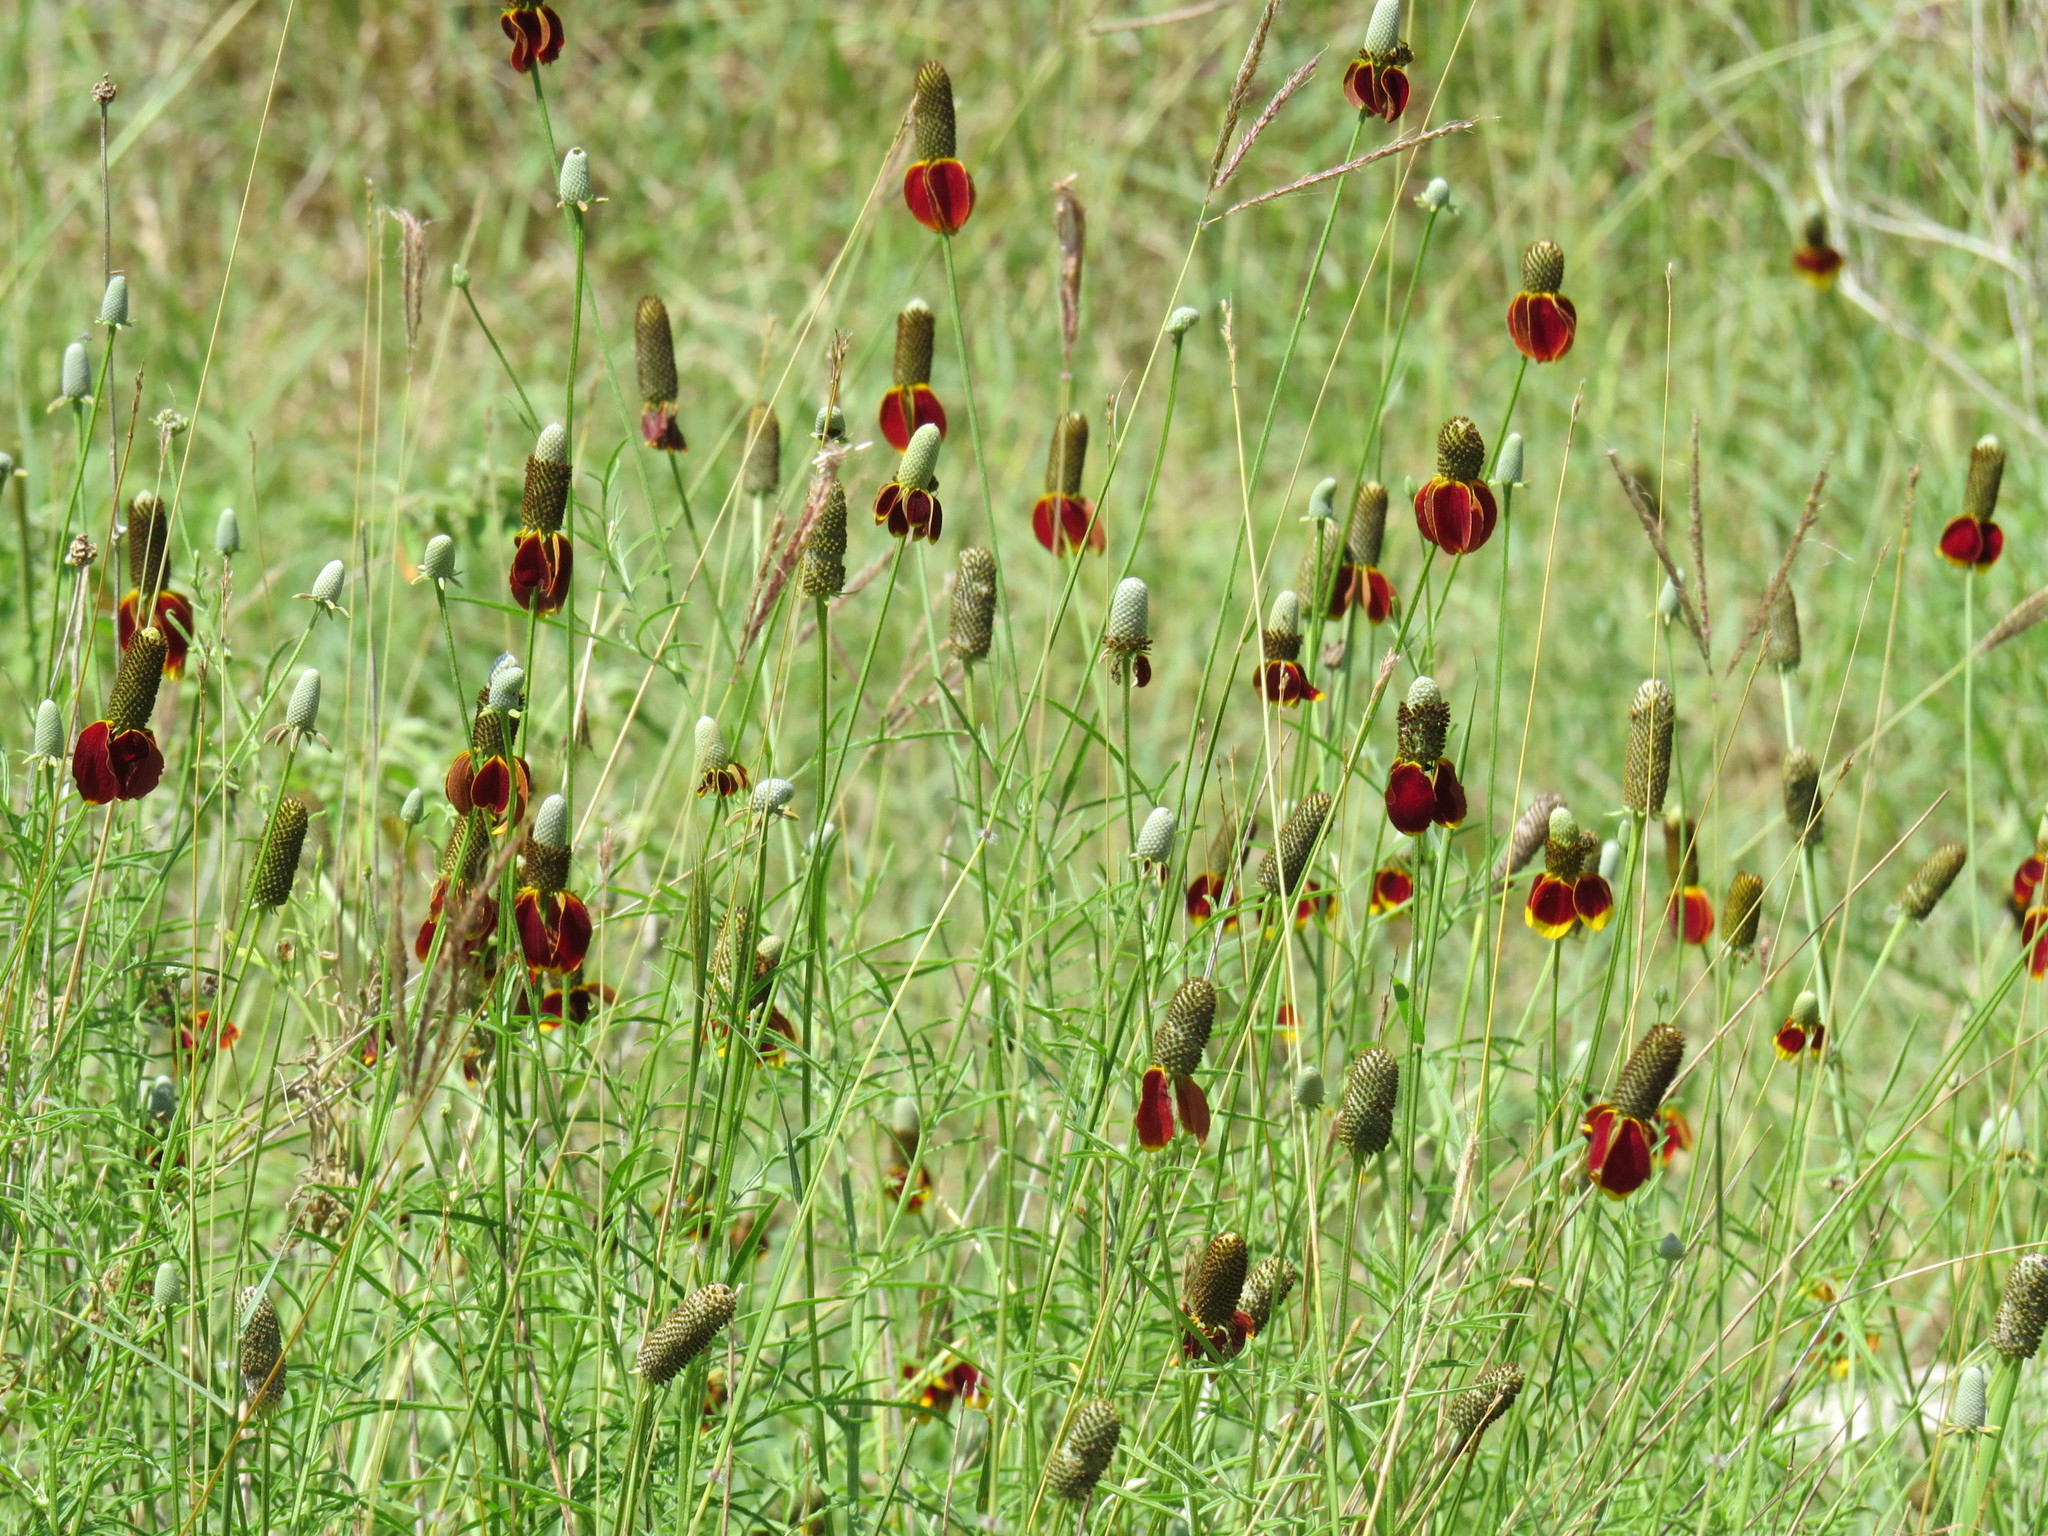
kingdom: Plantae
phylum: Tracheophyta
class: Magnoliopsida
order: Asterales
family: Asteraceae
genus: Ratibida
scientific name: Ratibida columnifera
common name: Prairie coneflower
